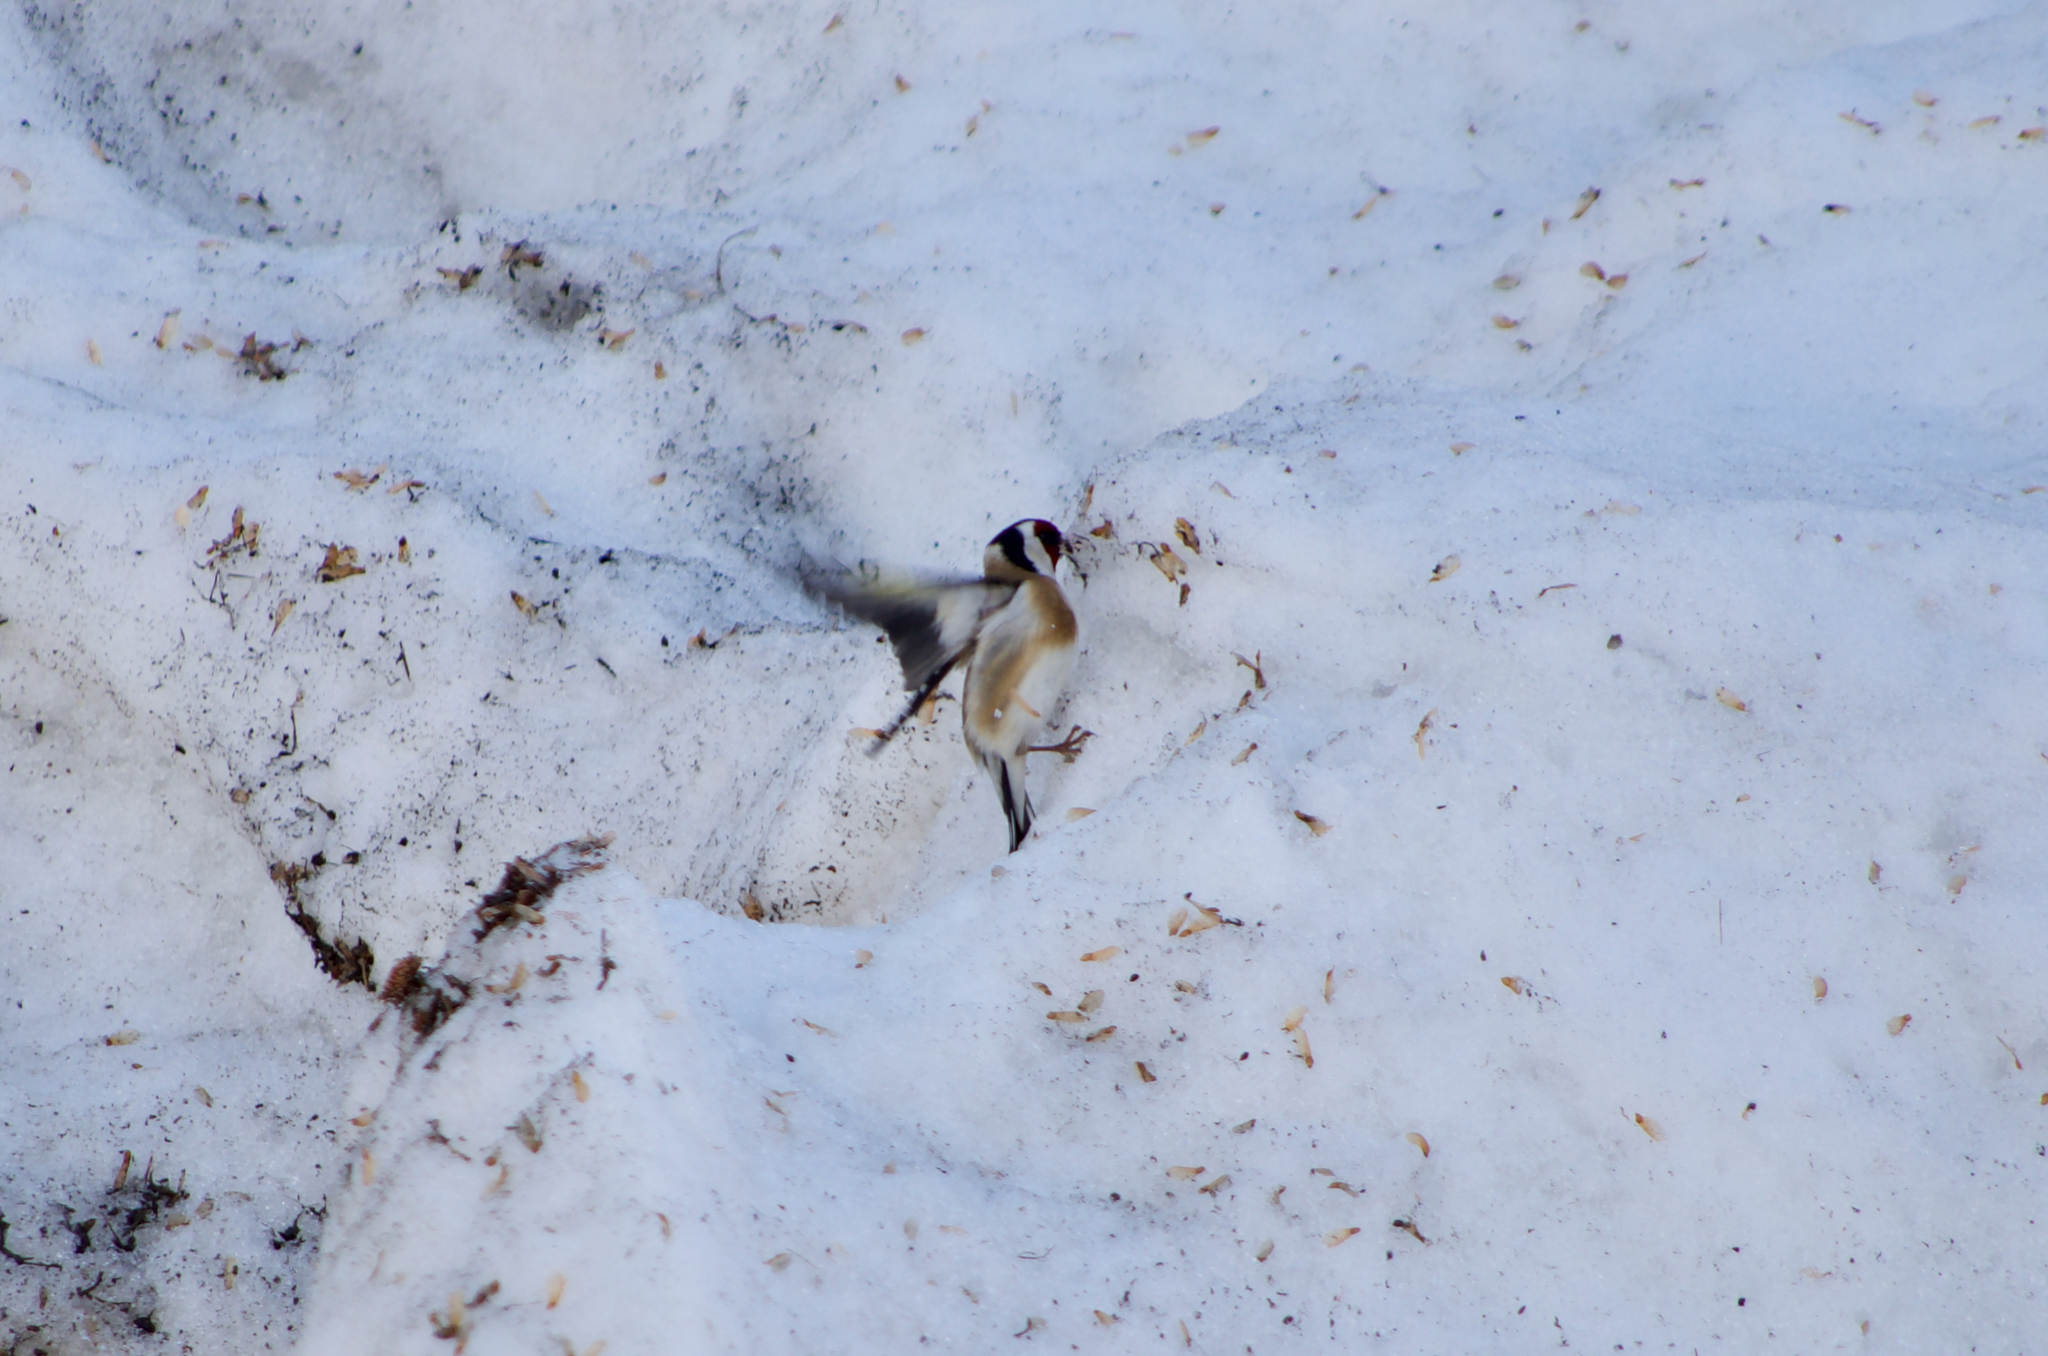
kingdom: Animalia
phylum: Chordata
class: Aves
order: Passeriformes
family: Fringillidae
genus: Carduelis
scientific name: Carduelis carduelis
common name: European goldfinch
